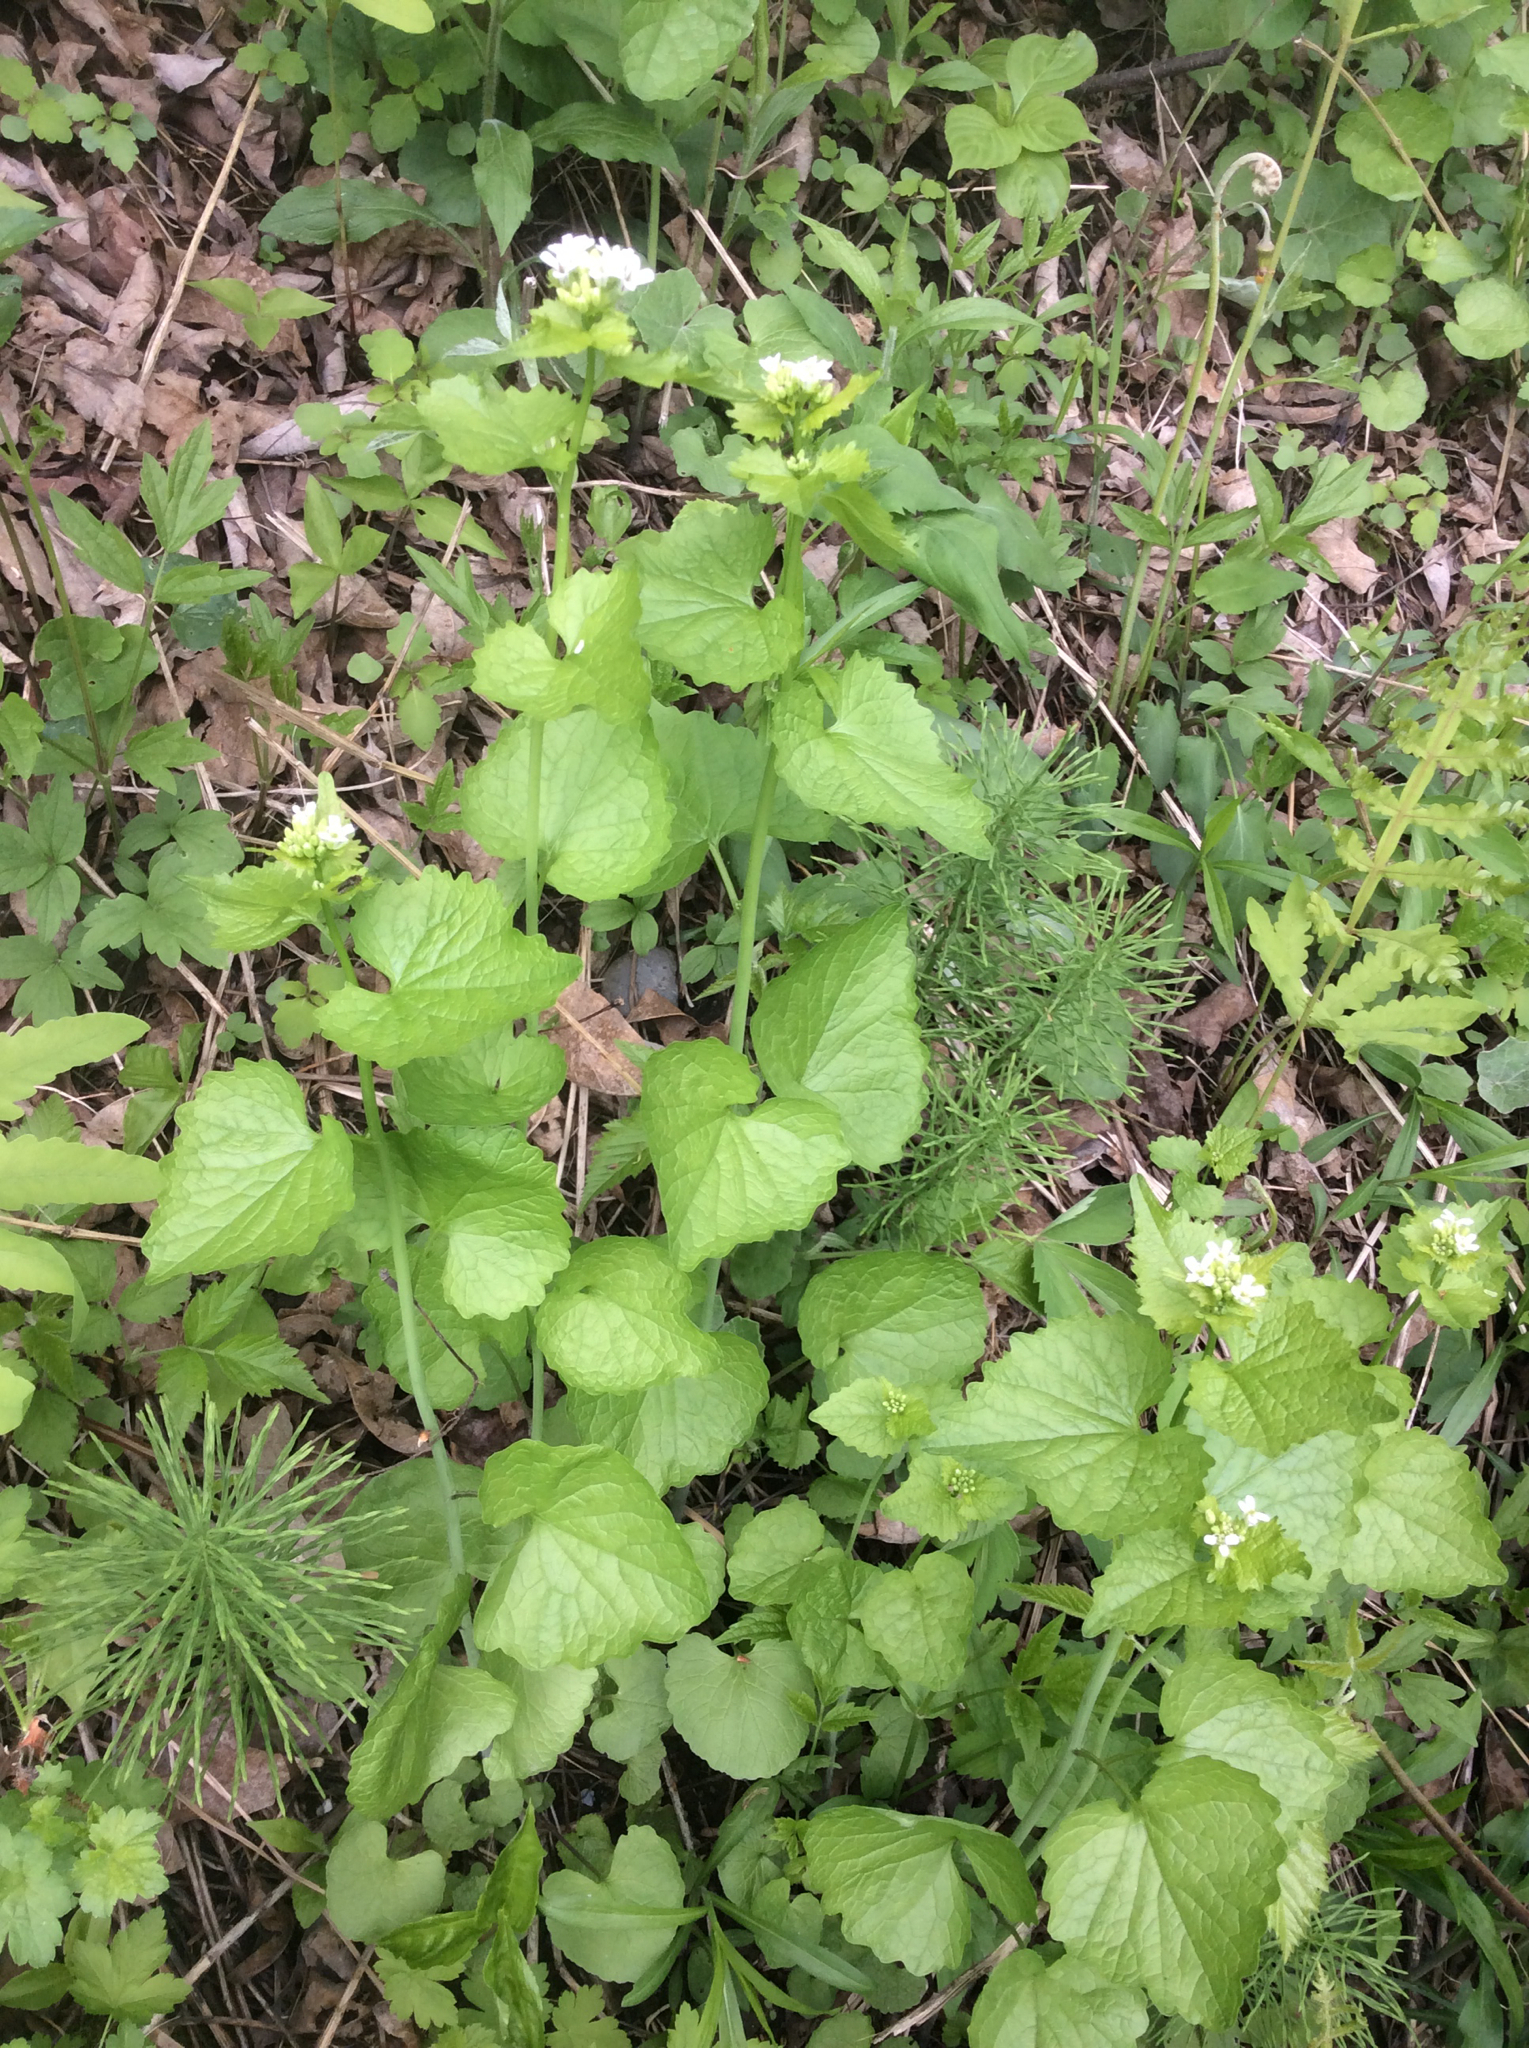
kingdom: Plantae
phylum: Tracheophyta
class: Magnoliopsida
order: Brassicales
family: Brassicaceae
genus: Alliaria
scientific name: Alliaria petiolata
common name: Garlic mustard
